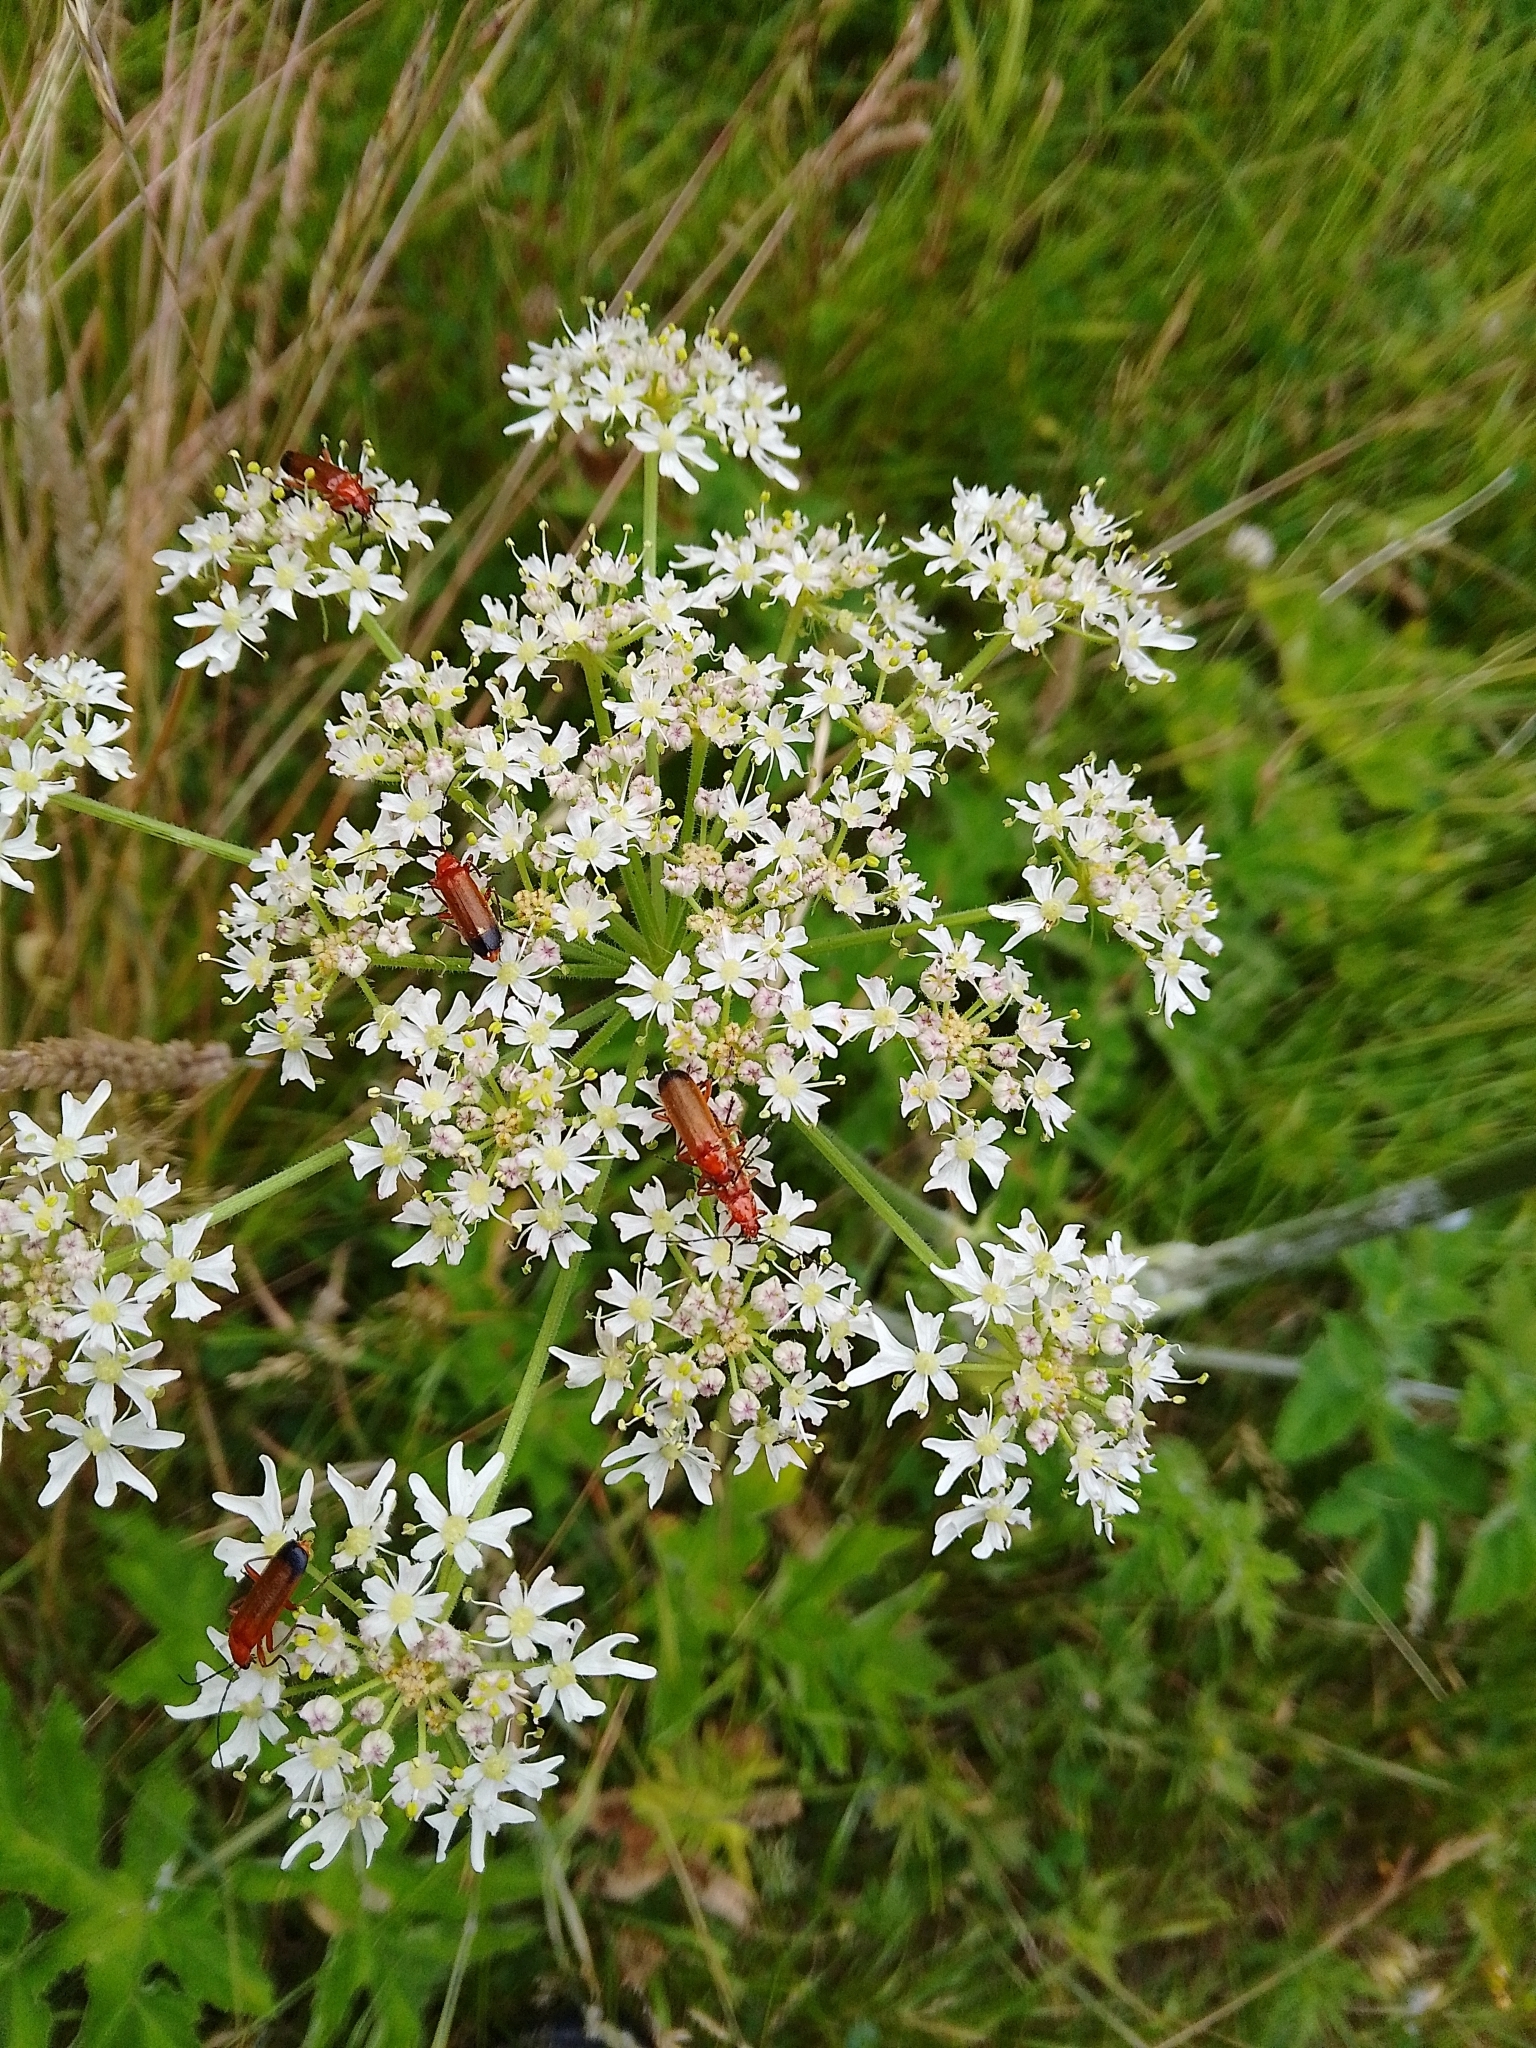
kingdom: Animalia
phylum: Arthropoda
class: Insecta
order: Coleoptera
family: Cantharidae
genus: Rhagonycha
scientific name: Rhagonycha fulva
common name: Common red soldier beetle
